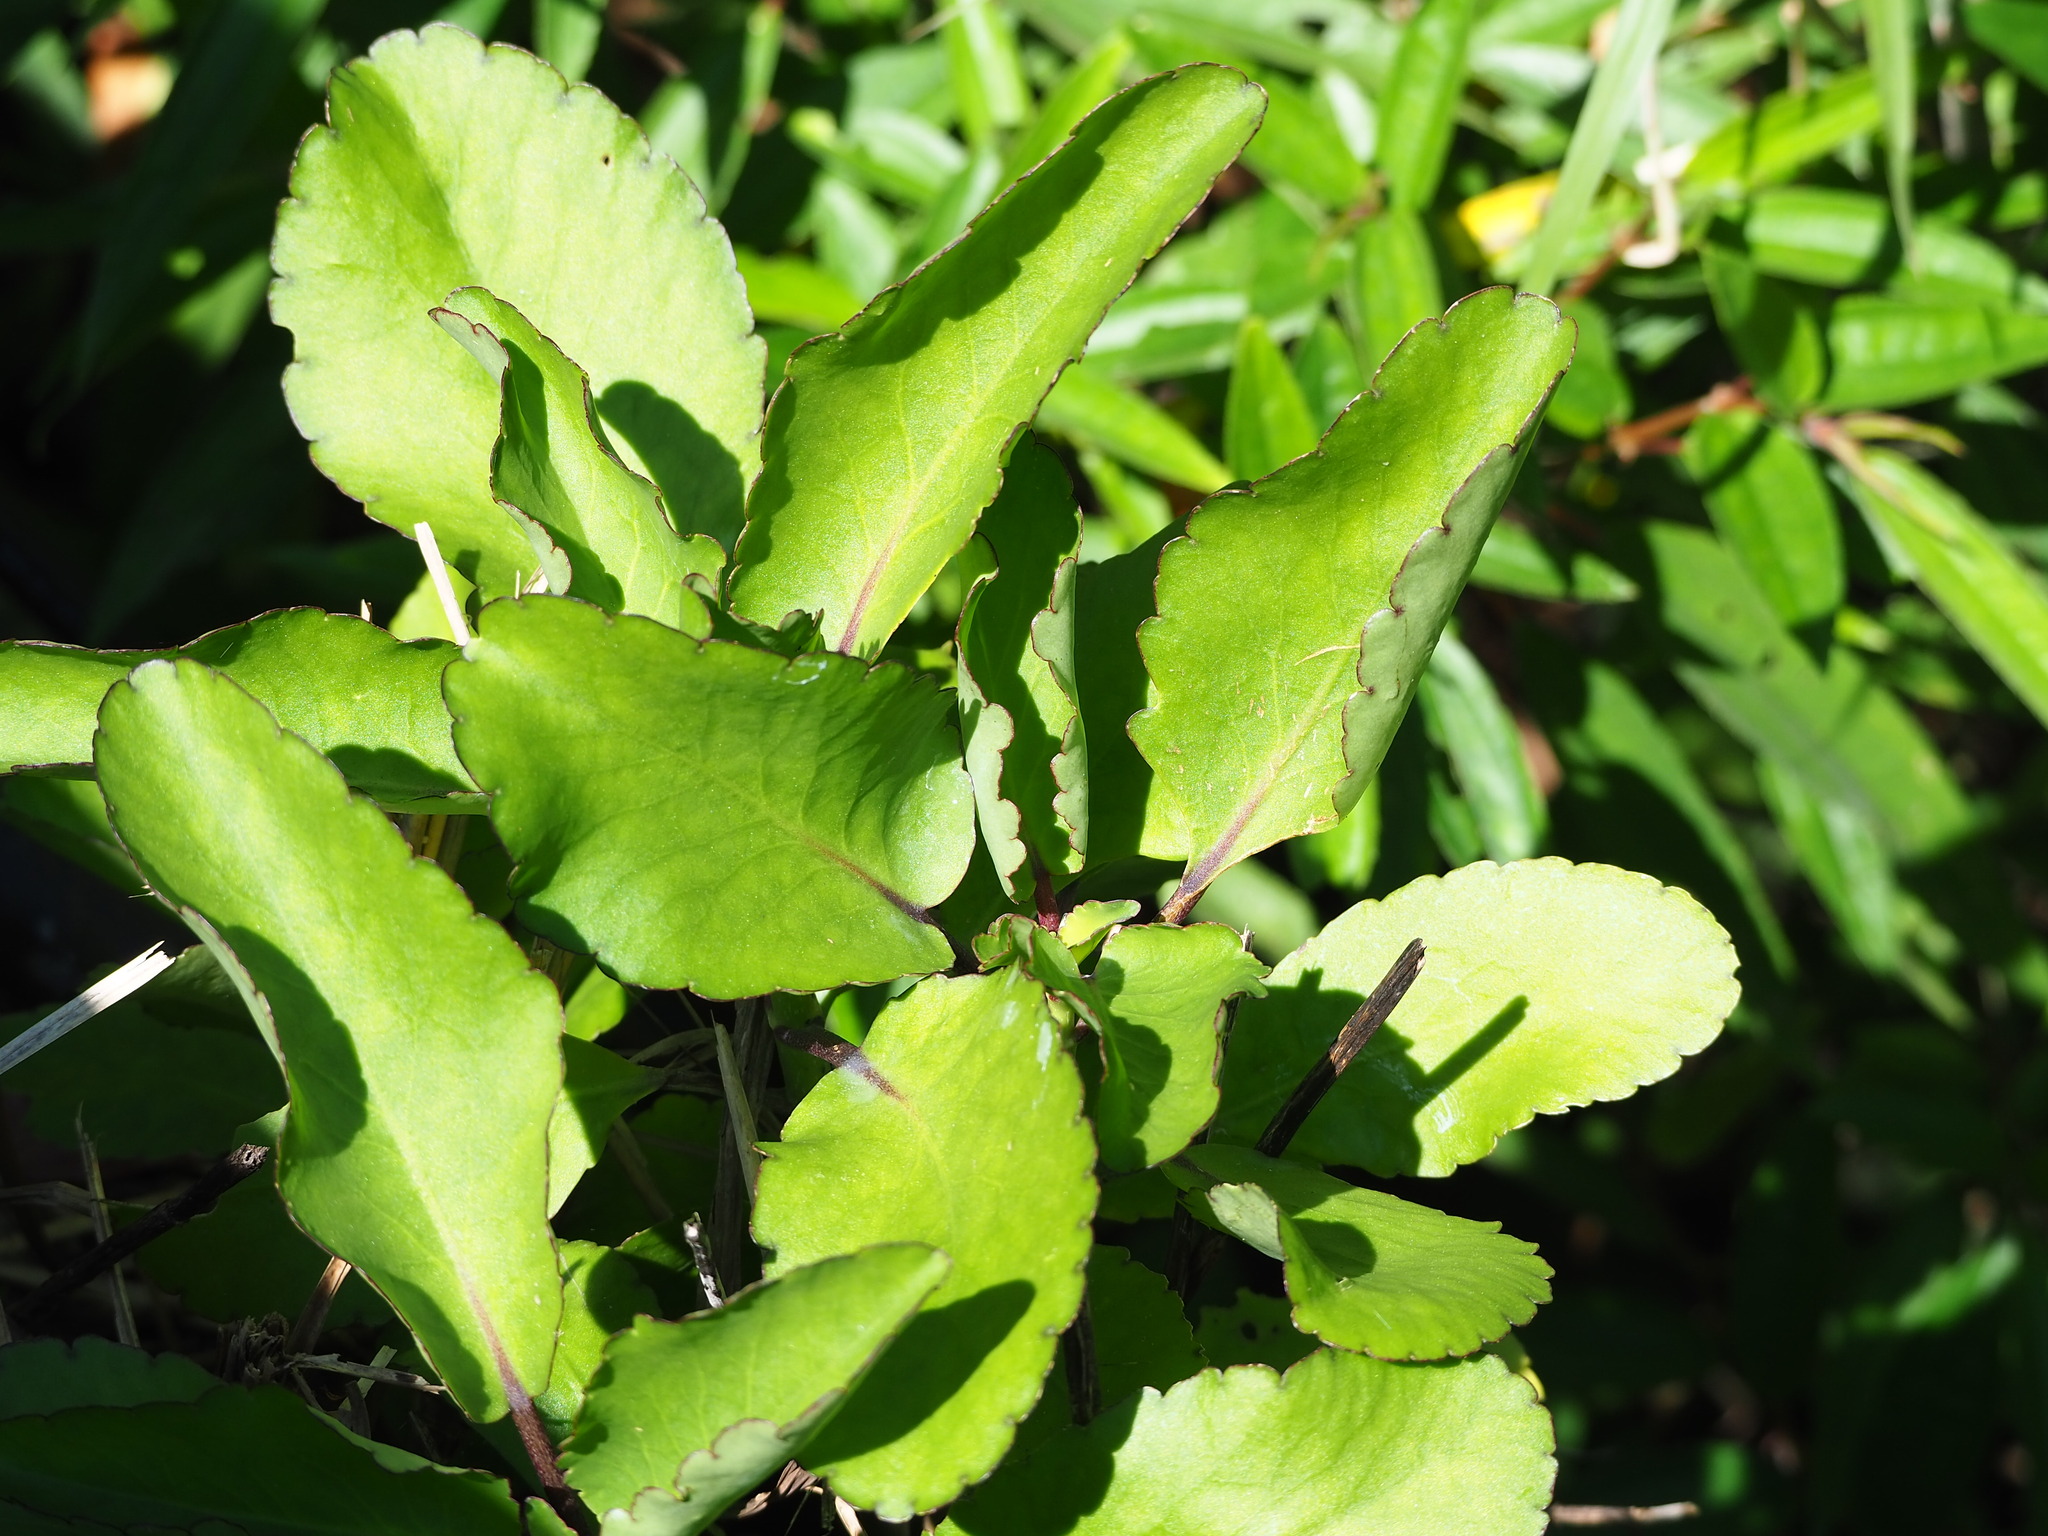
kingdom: Plantae
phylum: Tracheophyta
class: Magnoliopsida
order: Saxifragales
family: Crassulaceae
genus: Kalanchoe
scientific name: Kalanchoe pinnata
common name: Cathedral bells
